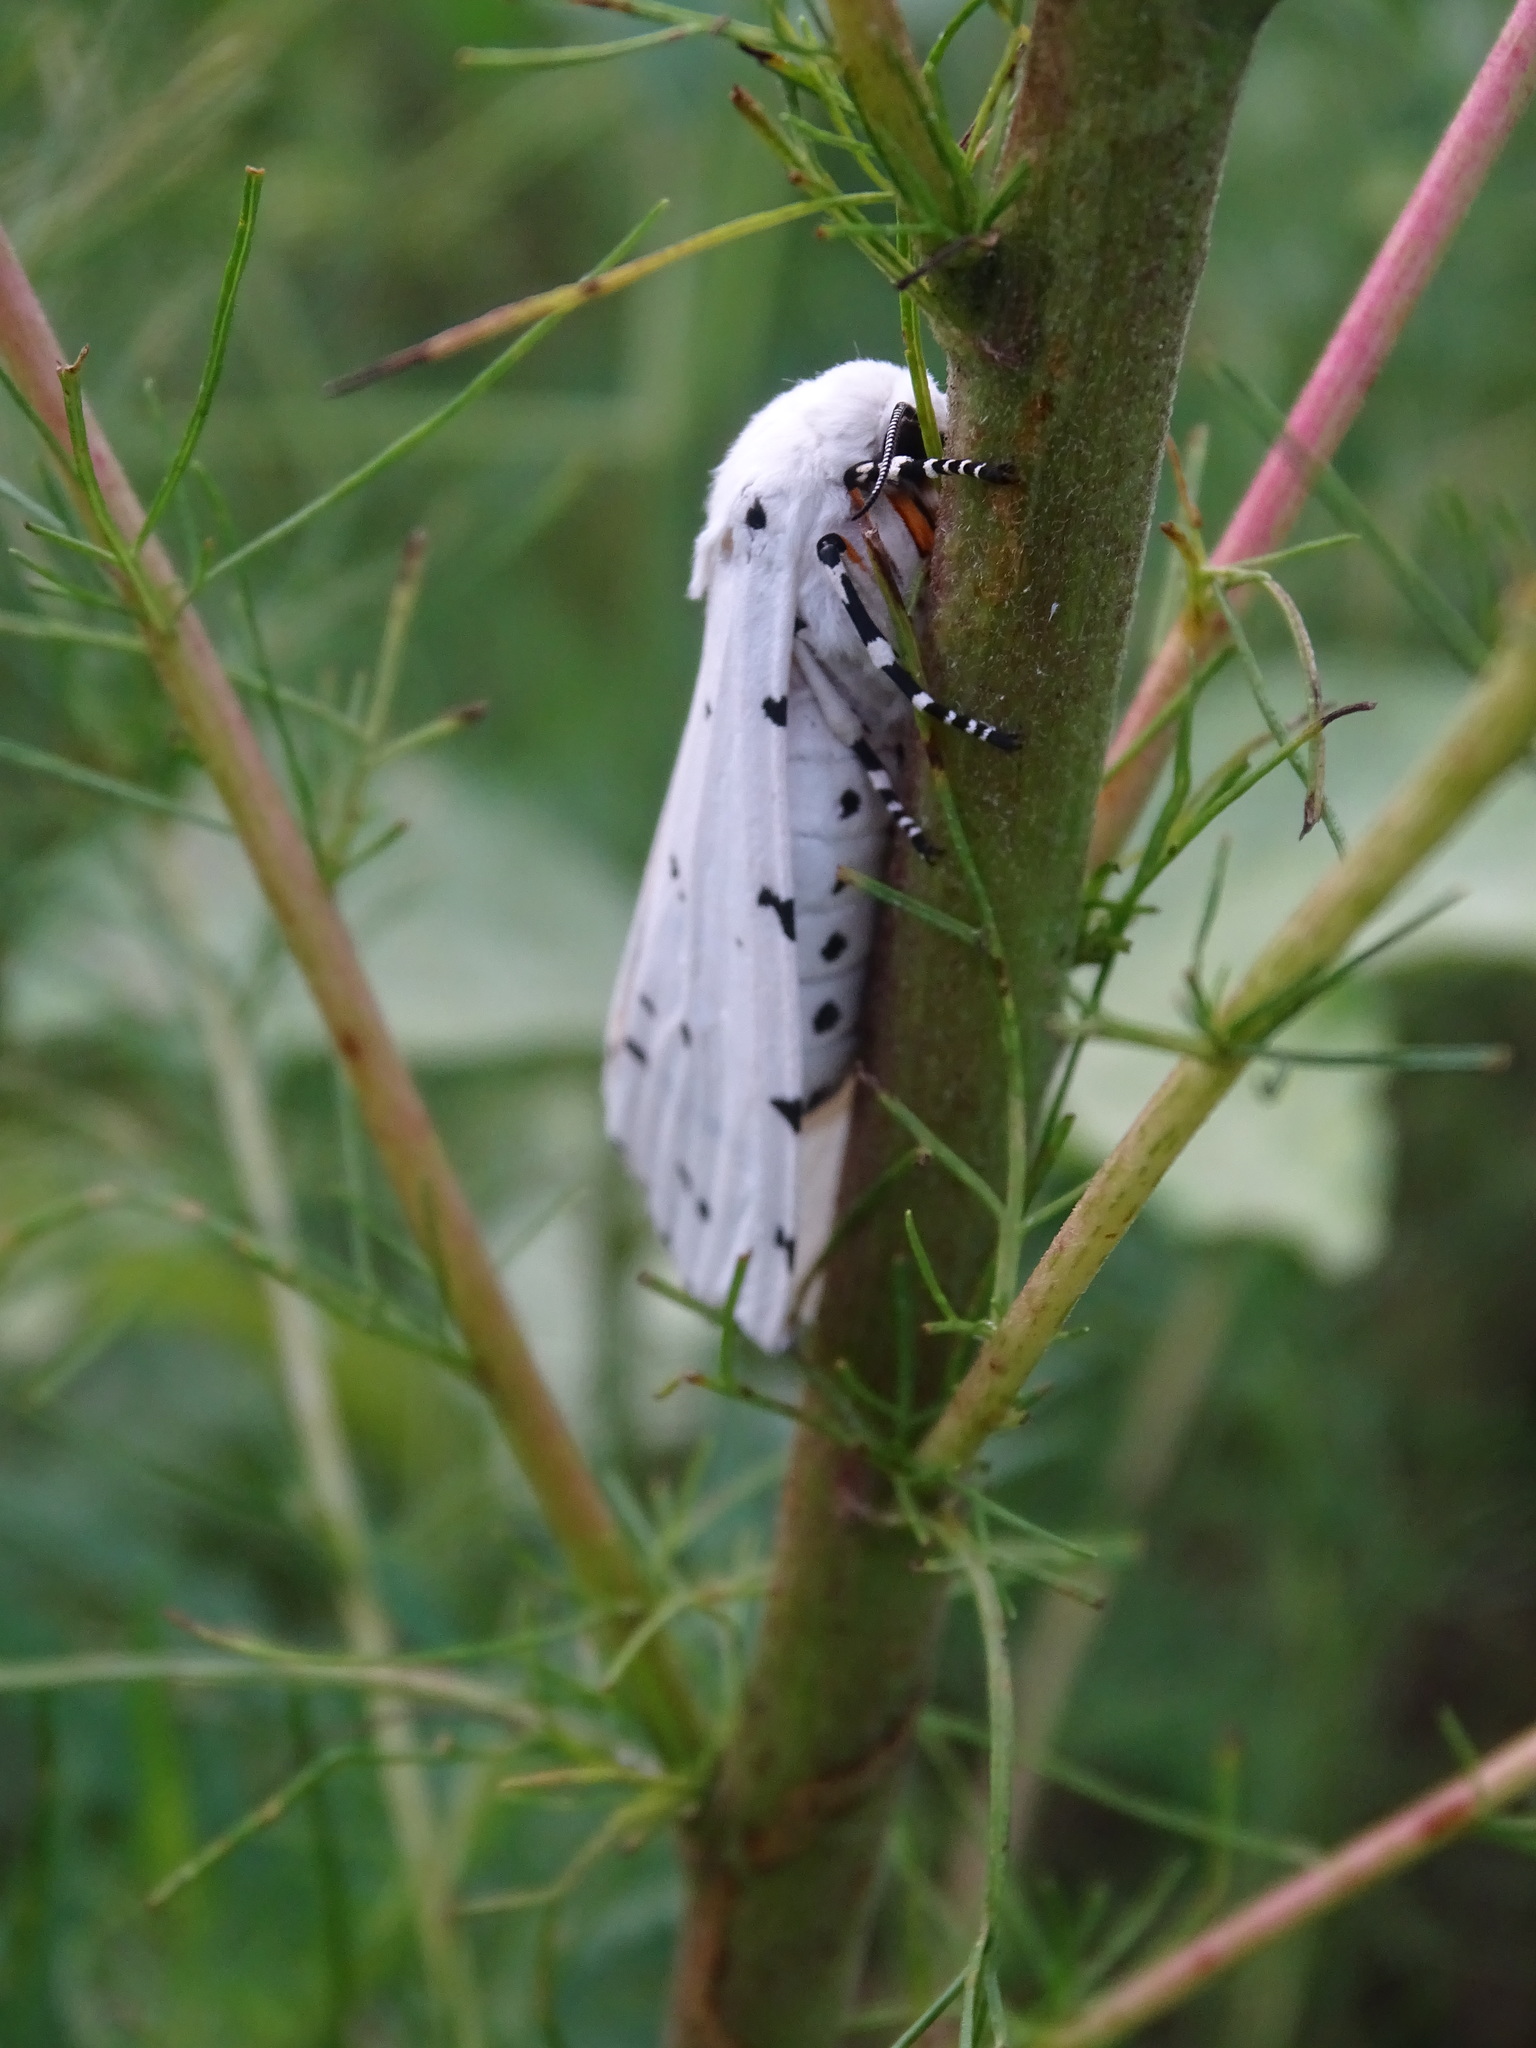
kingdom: Animalia
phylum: Arthropoda
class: Insecta
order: Lepidoptera
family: Erebidae
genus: Estigmene
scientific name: Estigmene acrea
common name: Salt marsh moth
